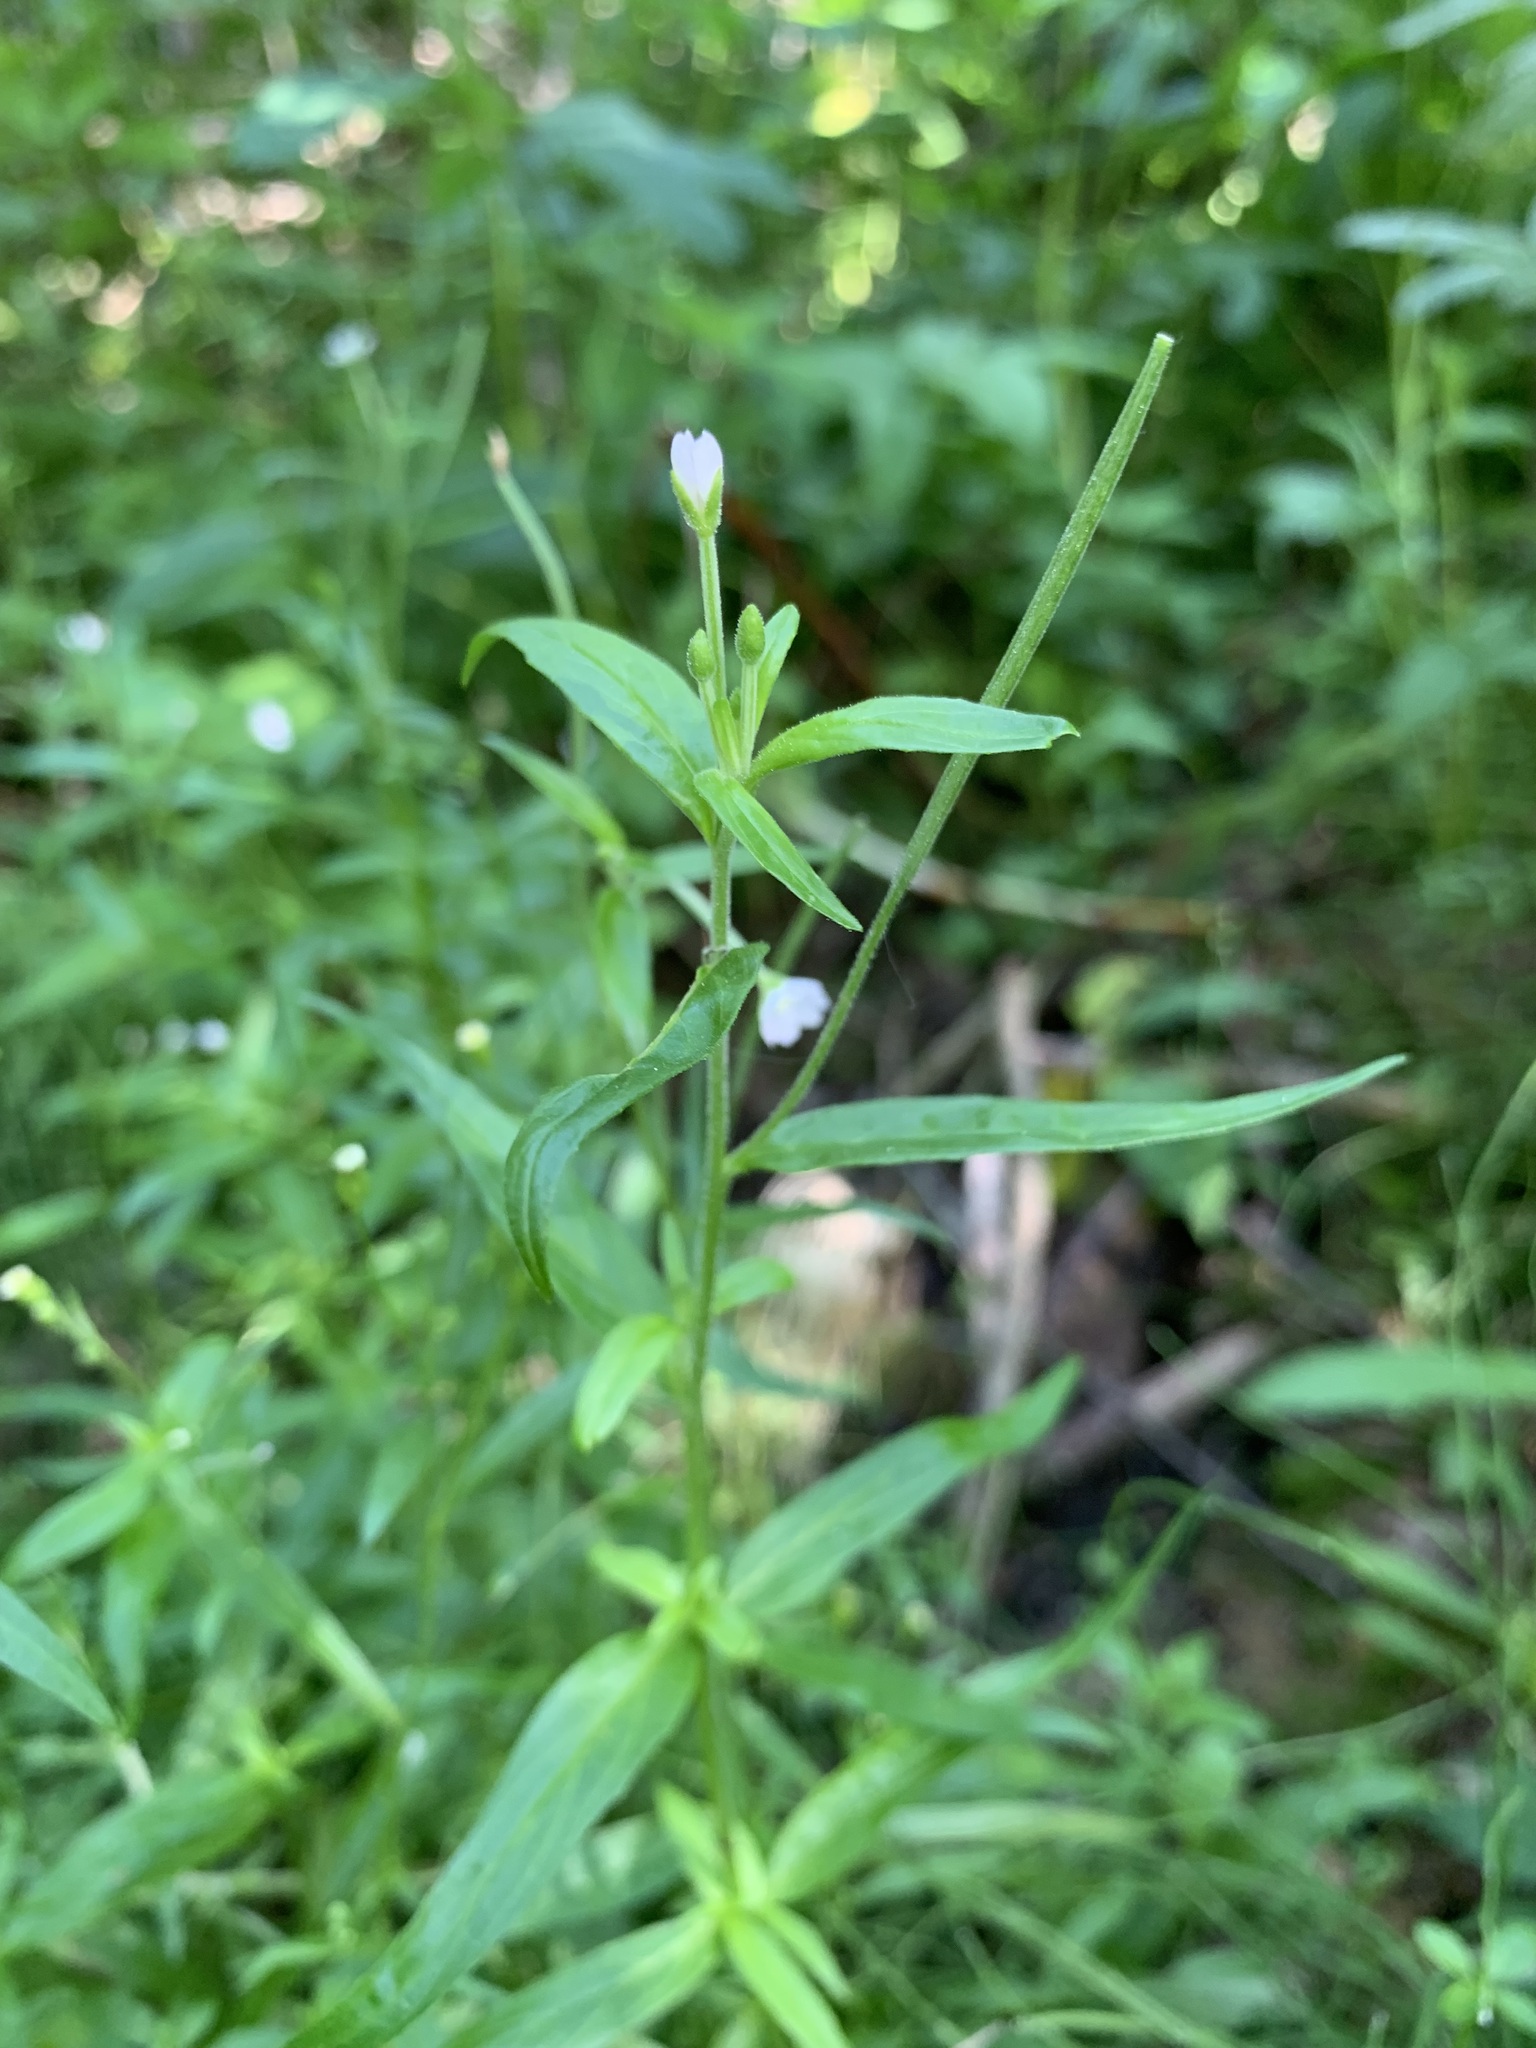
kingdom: Plantae
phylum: Tracheophyta
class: Magnoliopsida
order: Myrtales
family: Onagraceae
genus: Epilobium
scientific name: Epilobium palustre
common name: Marsh willowherb
